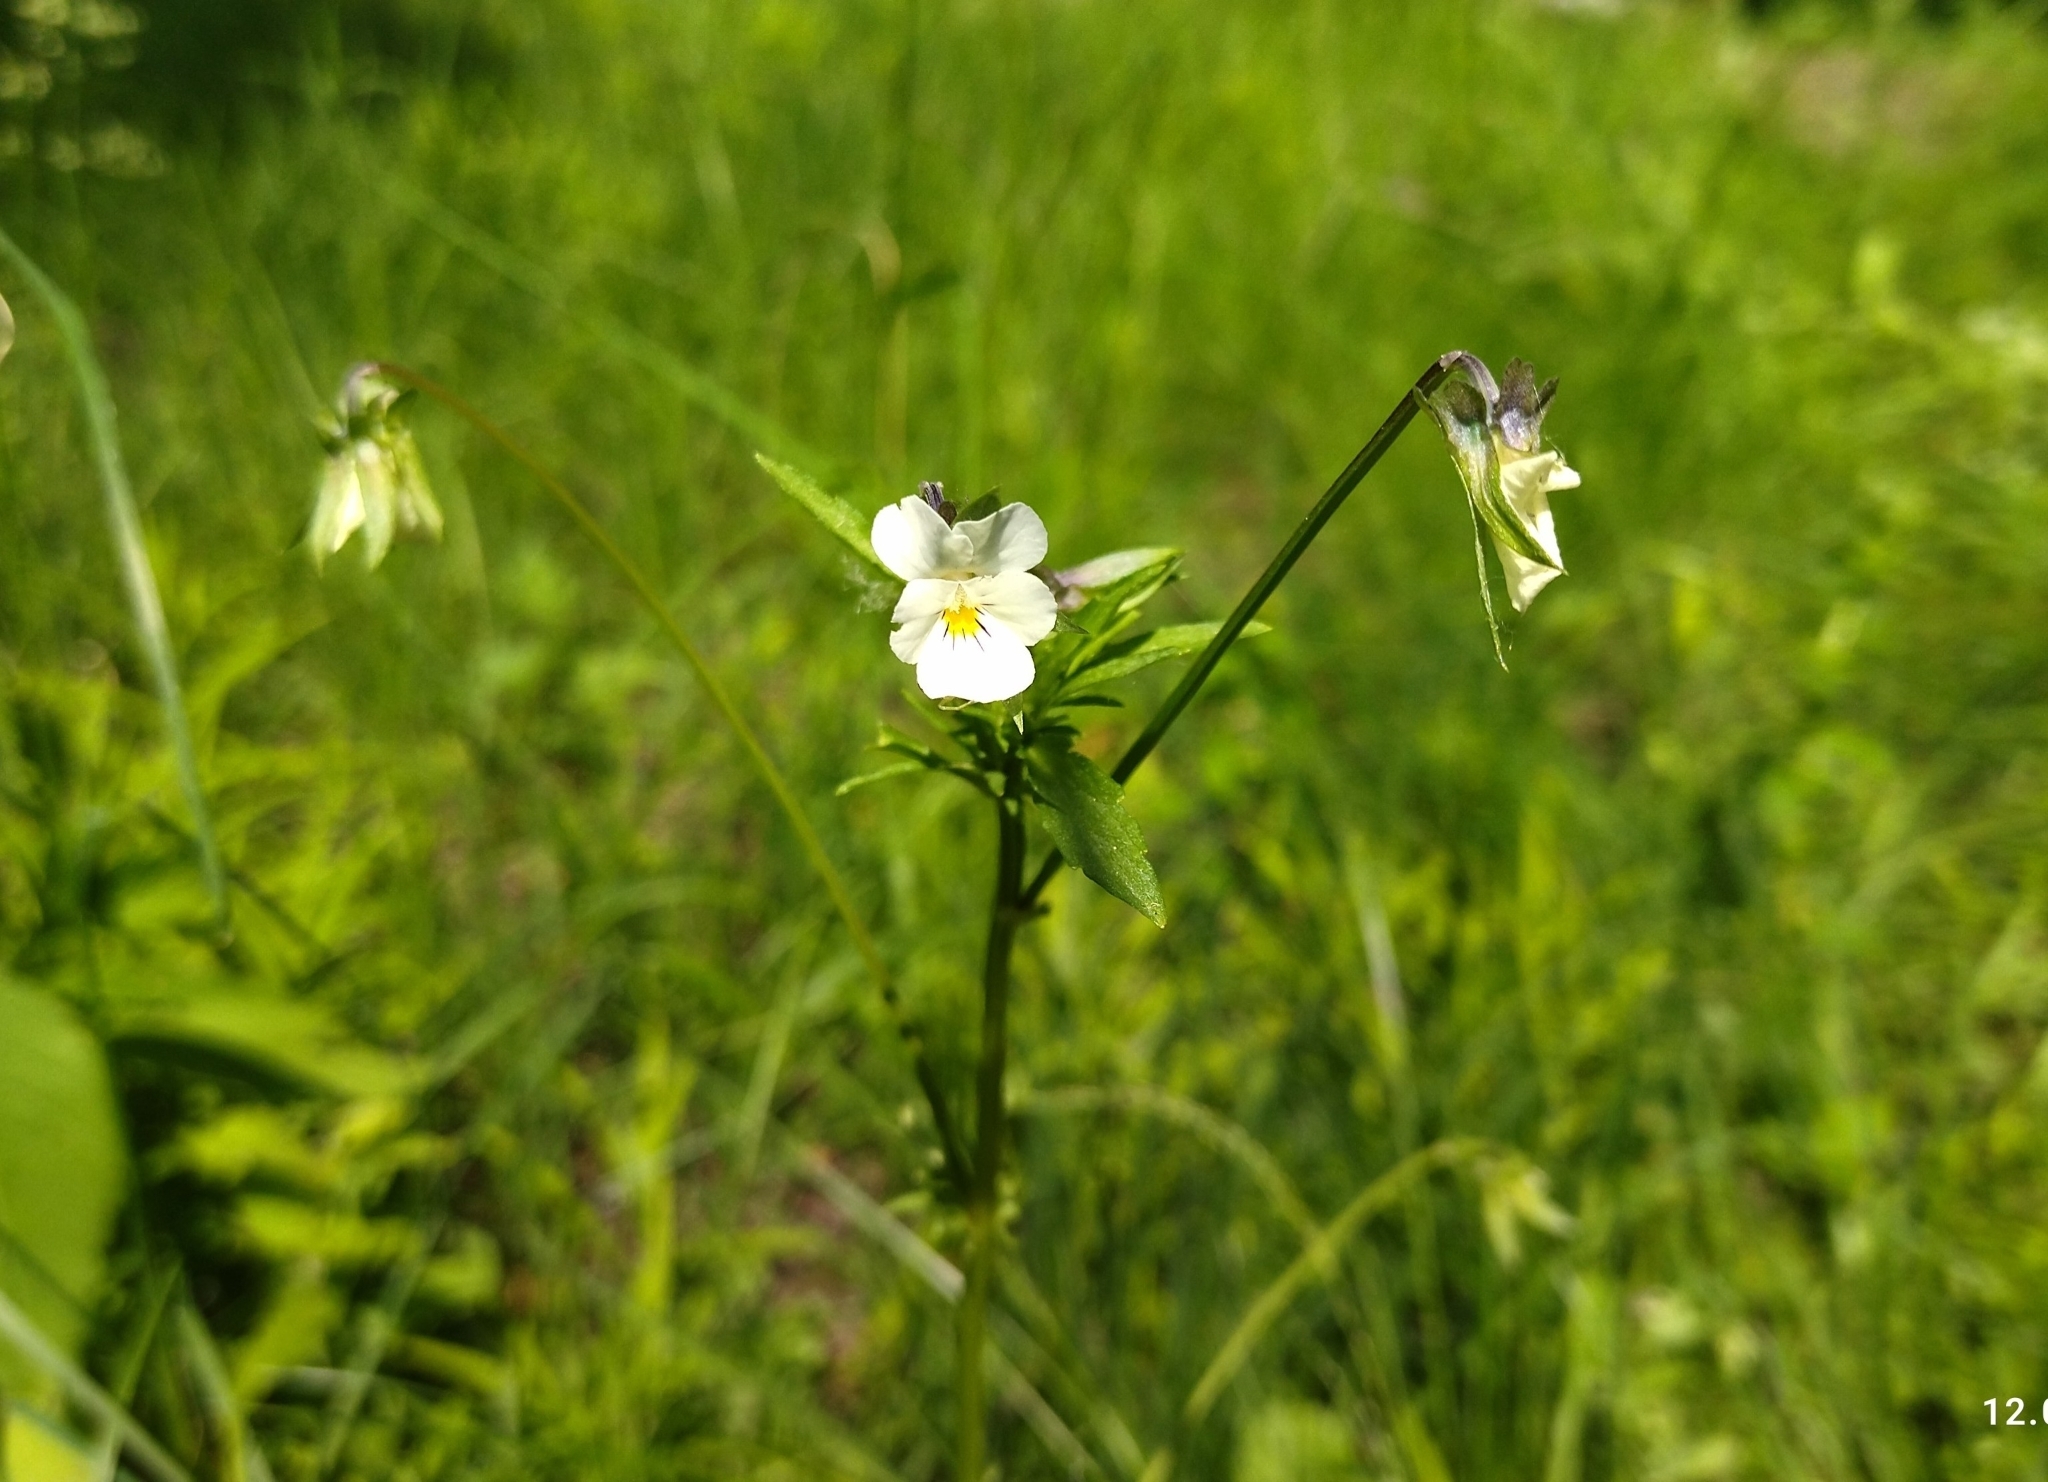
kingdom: Plantae
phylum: Tracheophyta
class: Magnoliopsida
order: Malpighiales
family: Violaceae
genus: Viola
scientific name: Viola arvensis
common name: Field pansy
